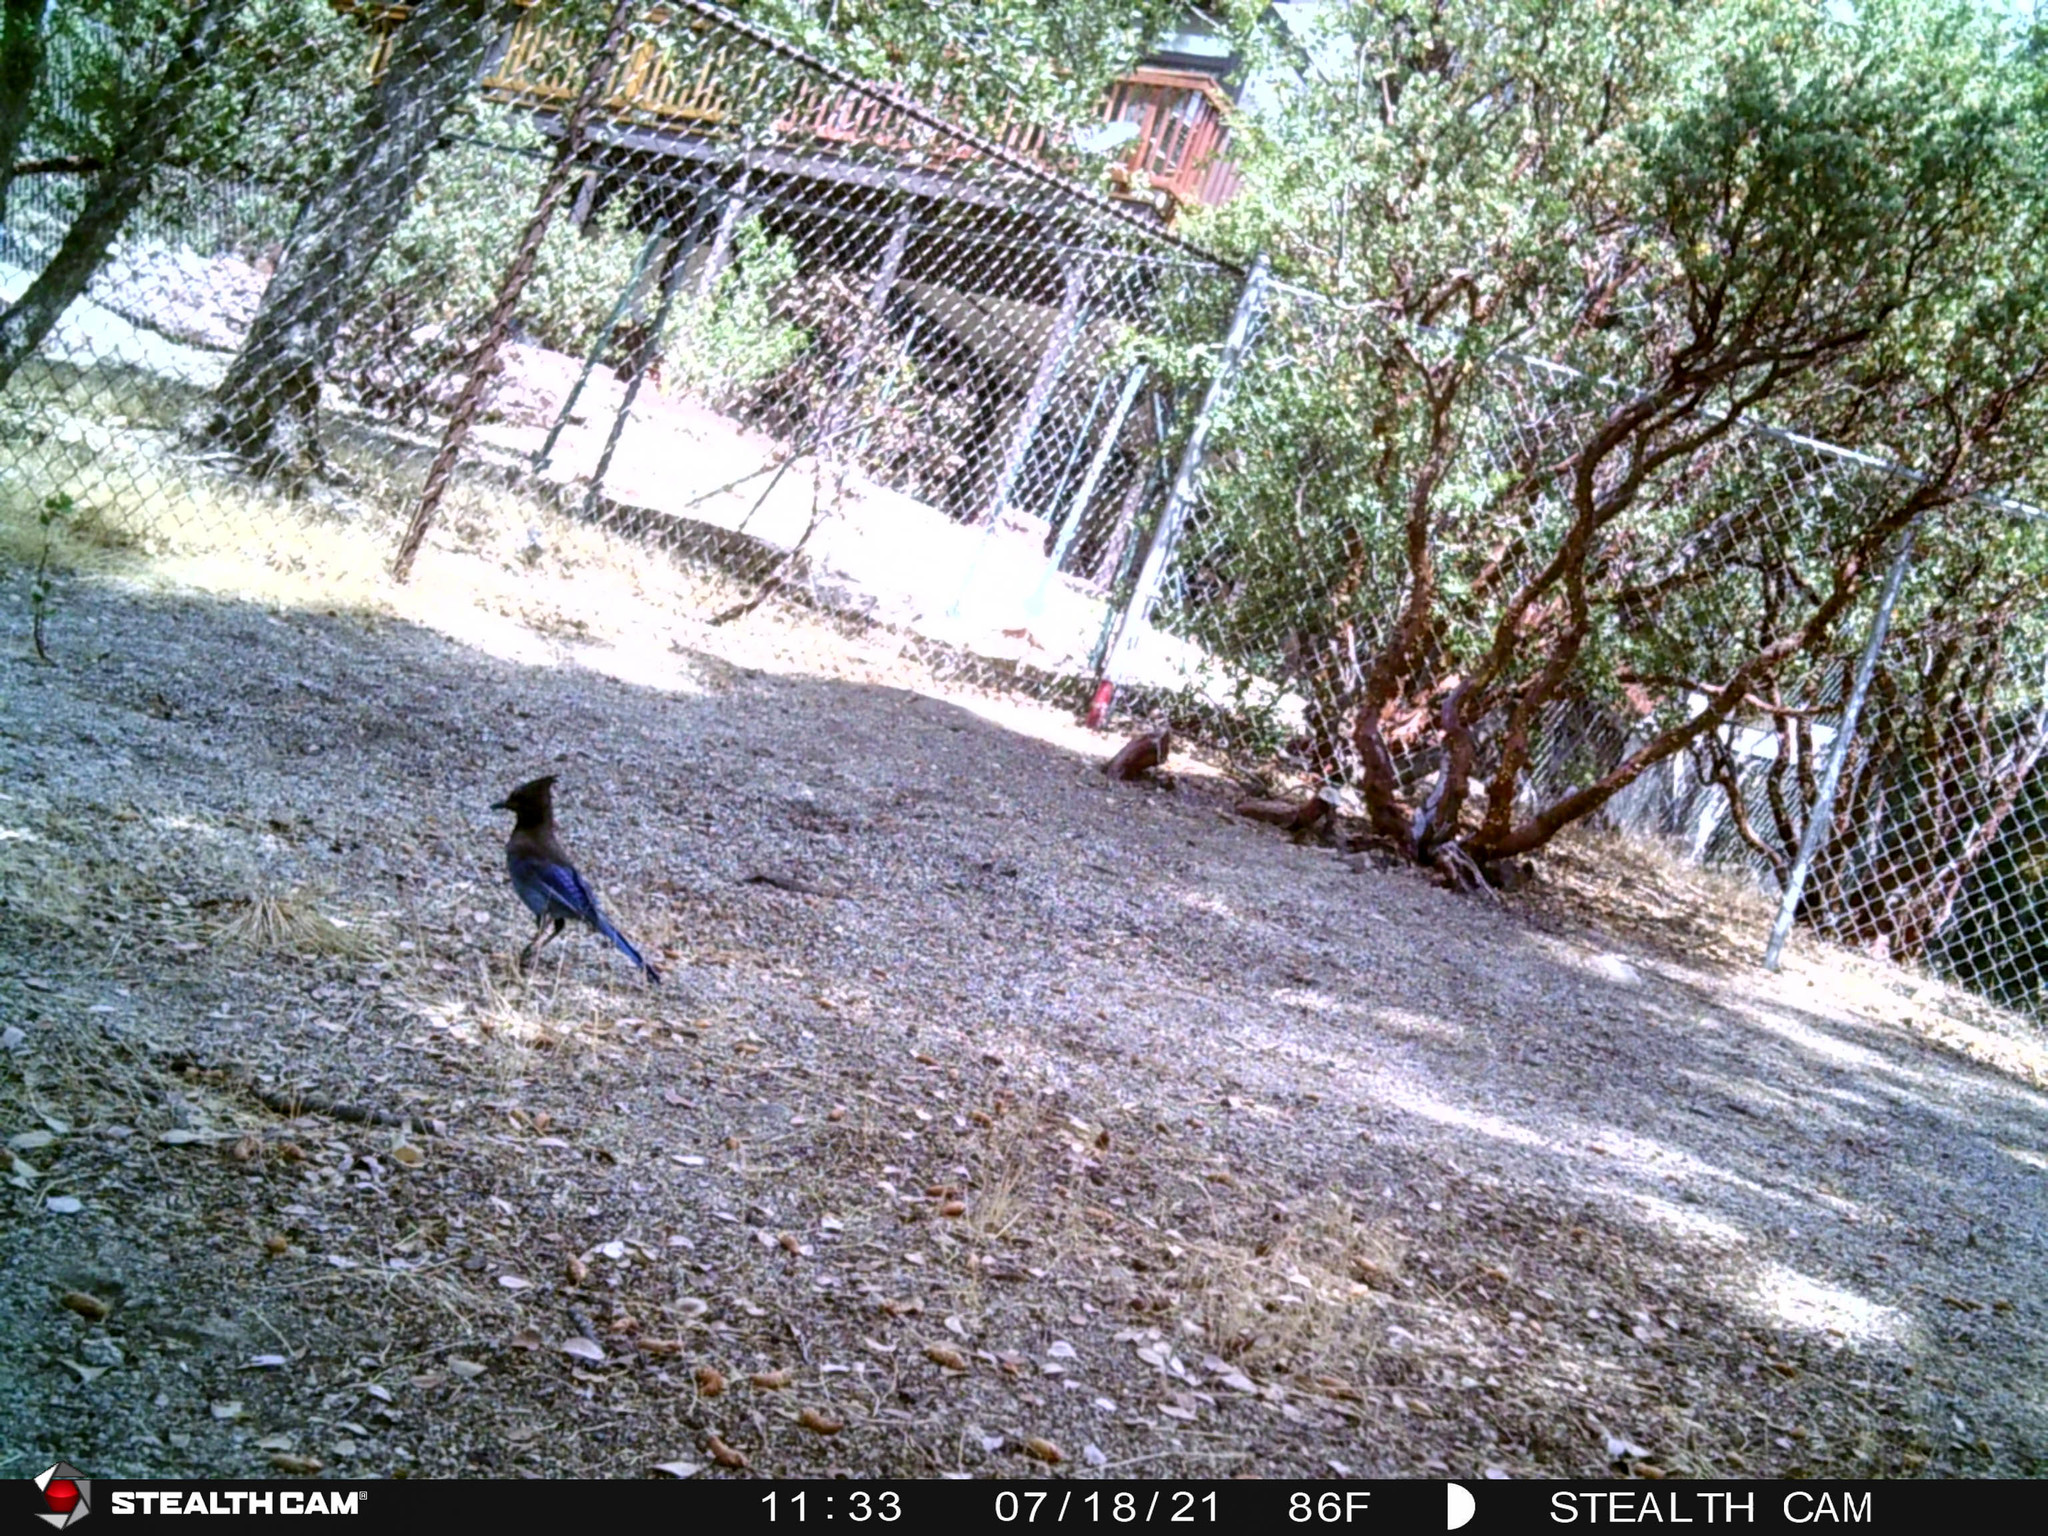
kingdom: Animalia
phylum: Chordata
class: Aves
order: Passeriformes
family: Corvidae
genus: Cyanocitta
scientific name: Cyanocitta stelleri
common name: Steller's jay
